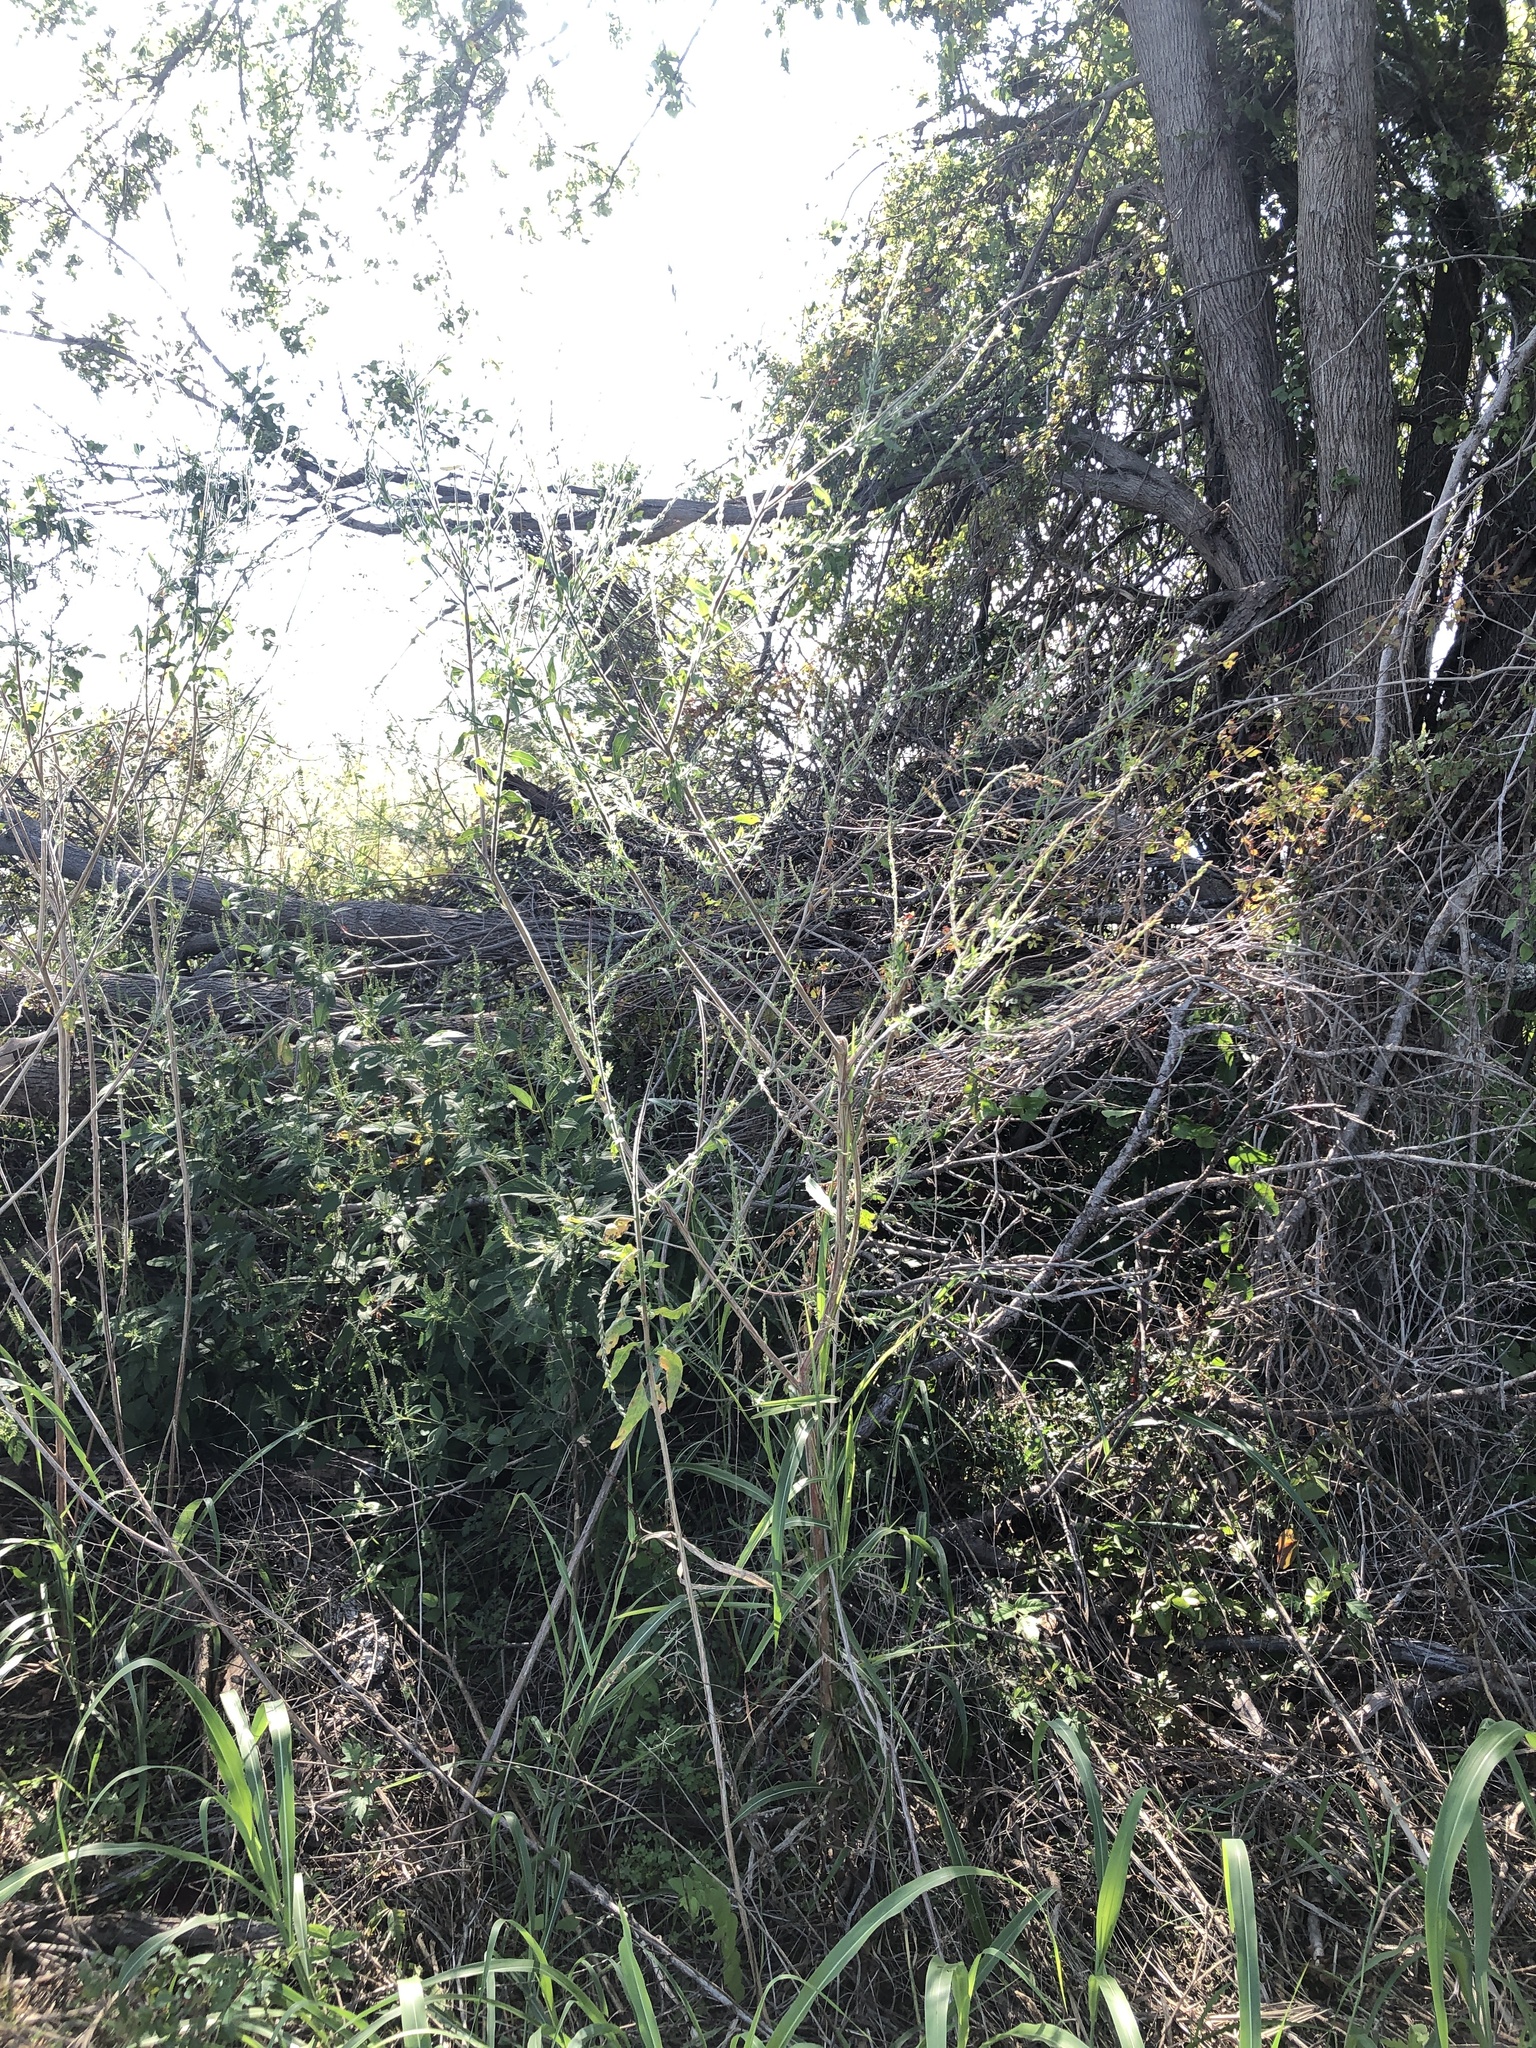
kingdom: Plantae
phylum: Tracheophyta
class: Magnoliopsida
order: Myrtales
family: Onagraceae
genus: Oenothera
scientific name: Oenothera curtiflora
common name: Velvetweed
